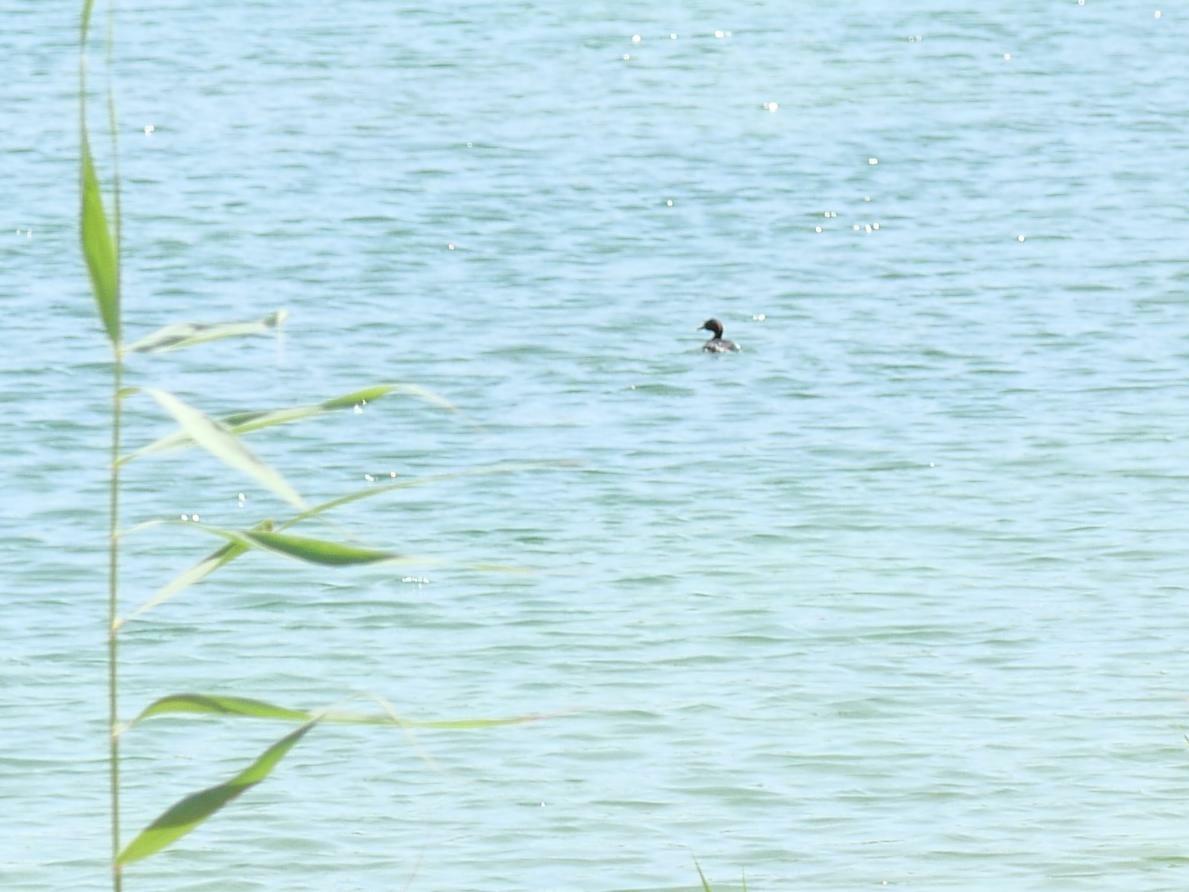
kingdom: Animalia
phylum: Chordata
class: Aves
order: Podicipediformes
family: Podicipedidae
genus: Tachybaptus
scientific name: Tachybaptus ruficollis
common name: Little grebe
